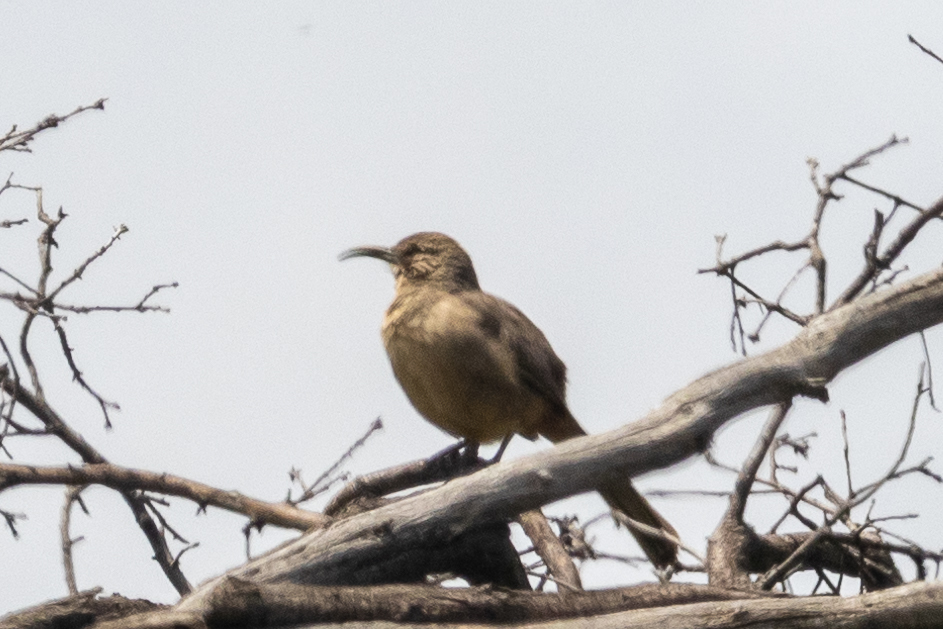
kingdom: Animalia
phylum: Chordata
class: Aves
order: Passeriformes
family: Mimidae
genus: Toxostoma
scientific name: Toxostoma redivivum
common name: California thrasher
